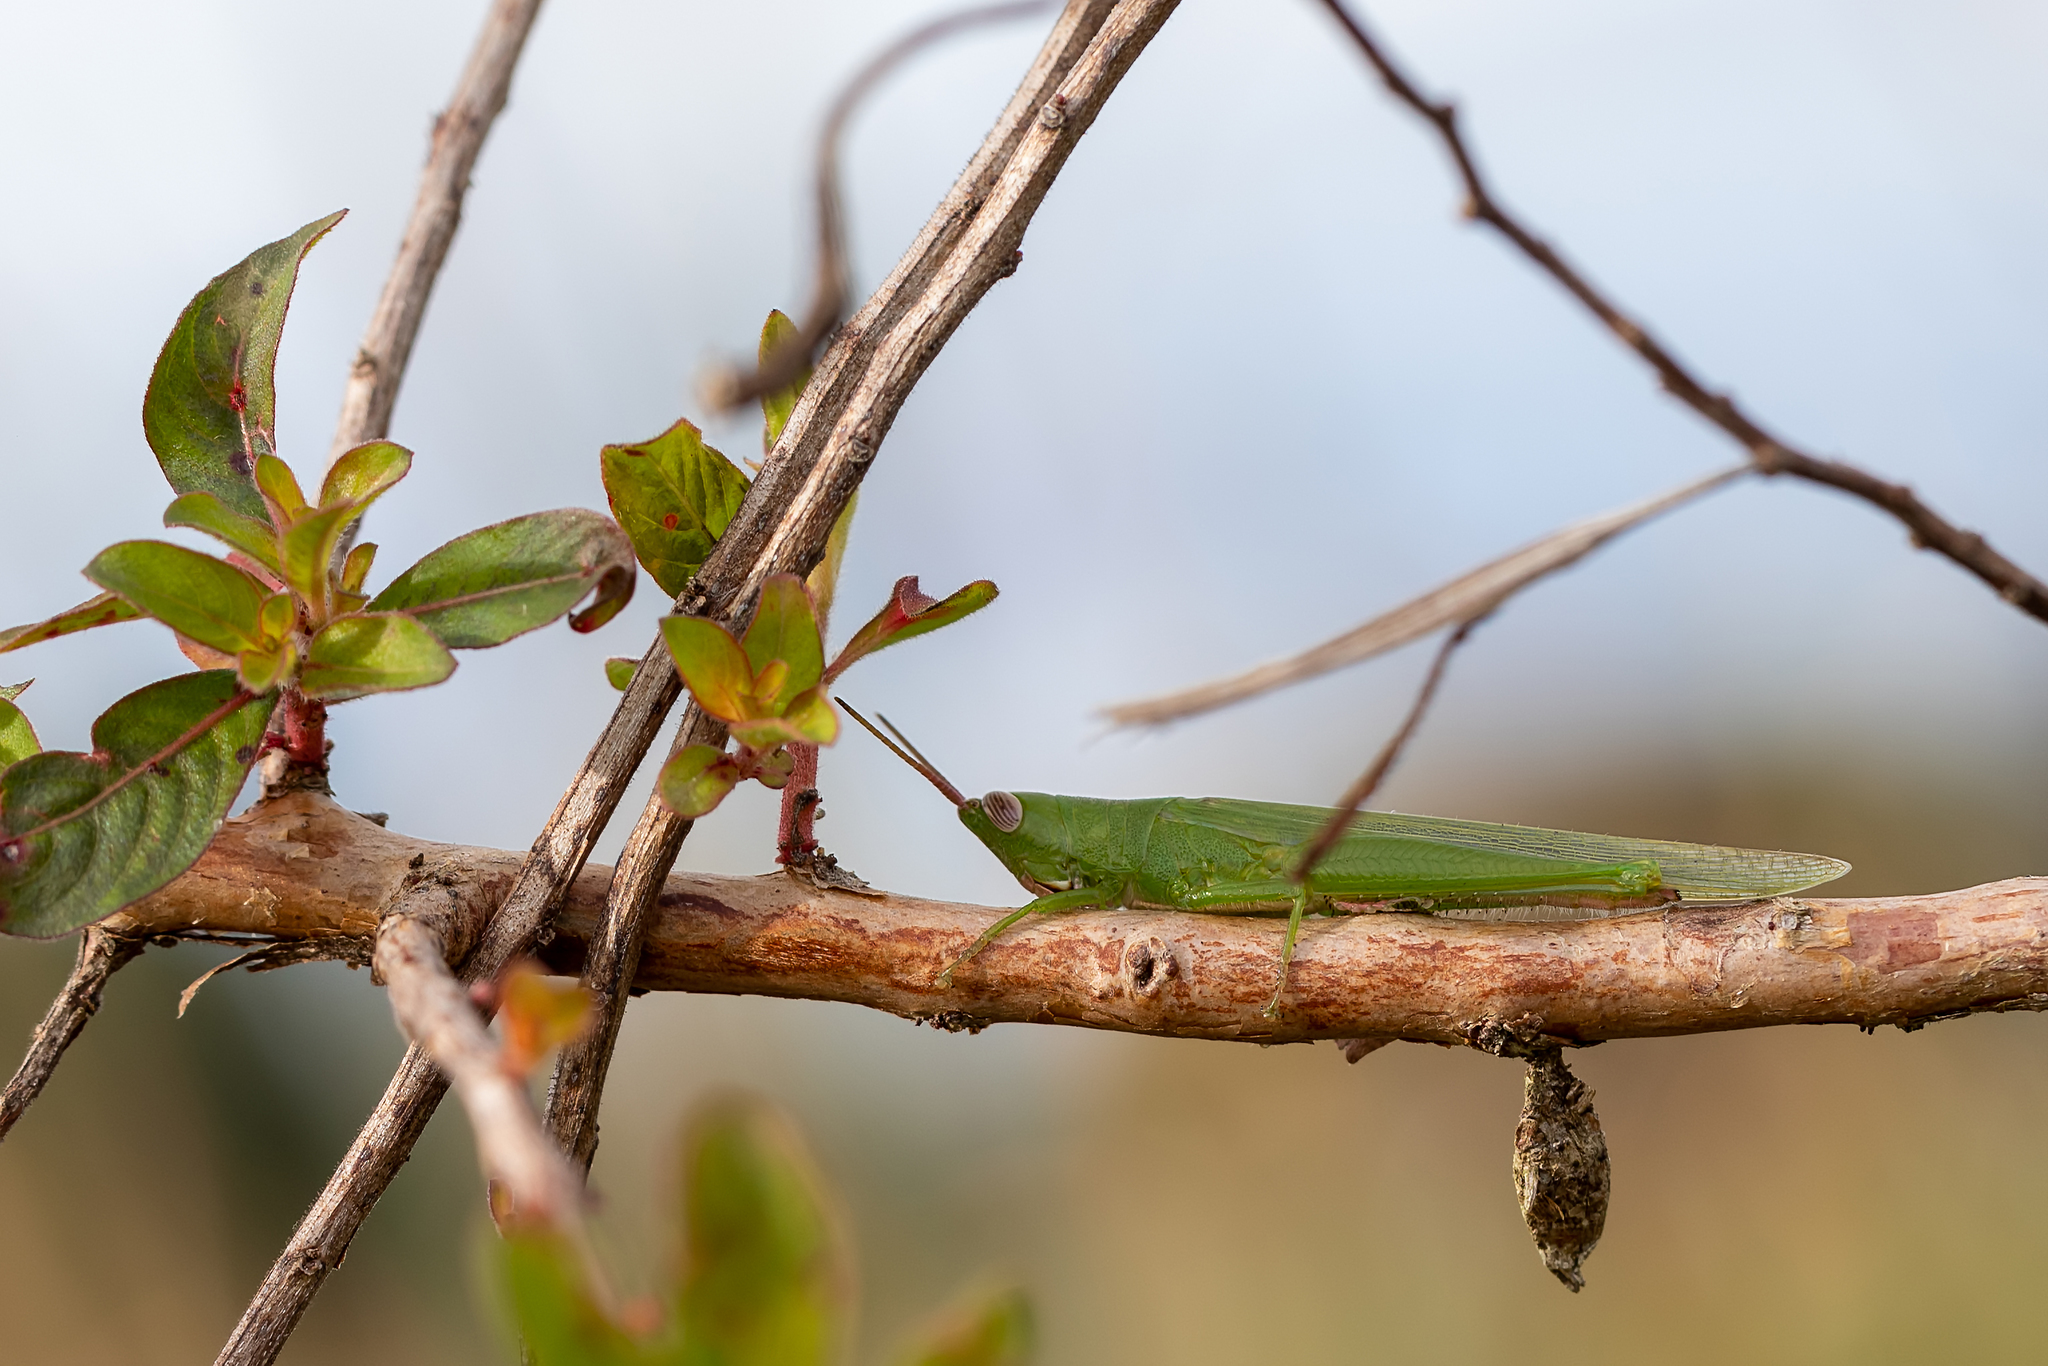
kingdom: Animalia
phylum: Arthropoda
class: Insecta
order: Orthoptera
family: Acrididae
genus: Stenacris
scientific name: Stenacris vitreipennis
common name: Glassy-winged toothpick grasshopper
